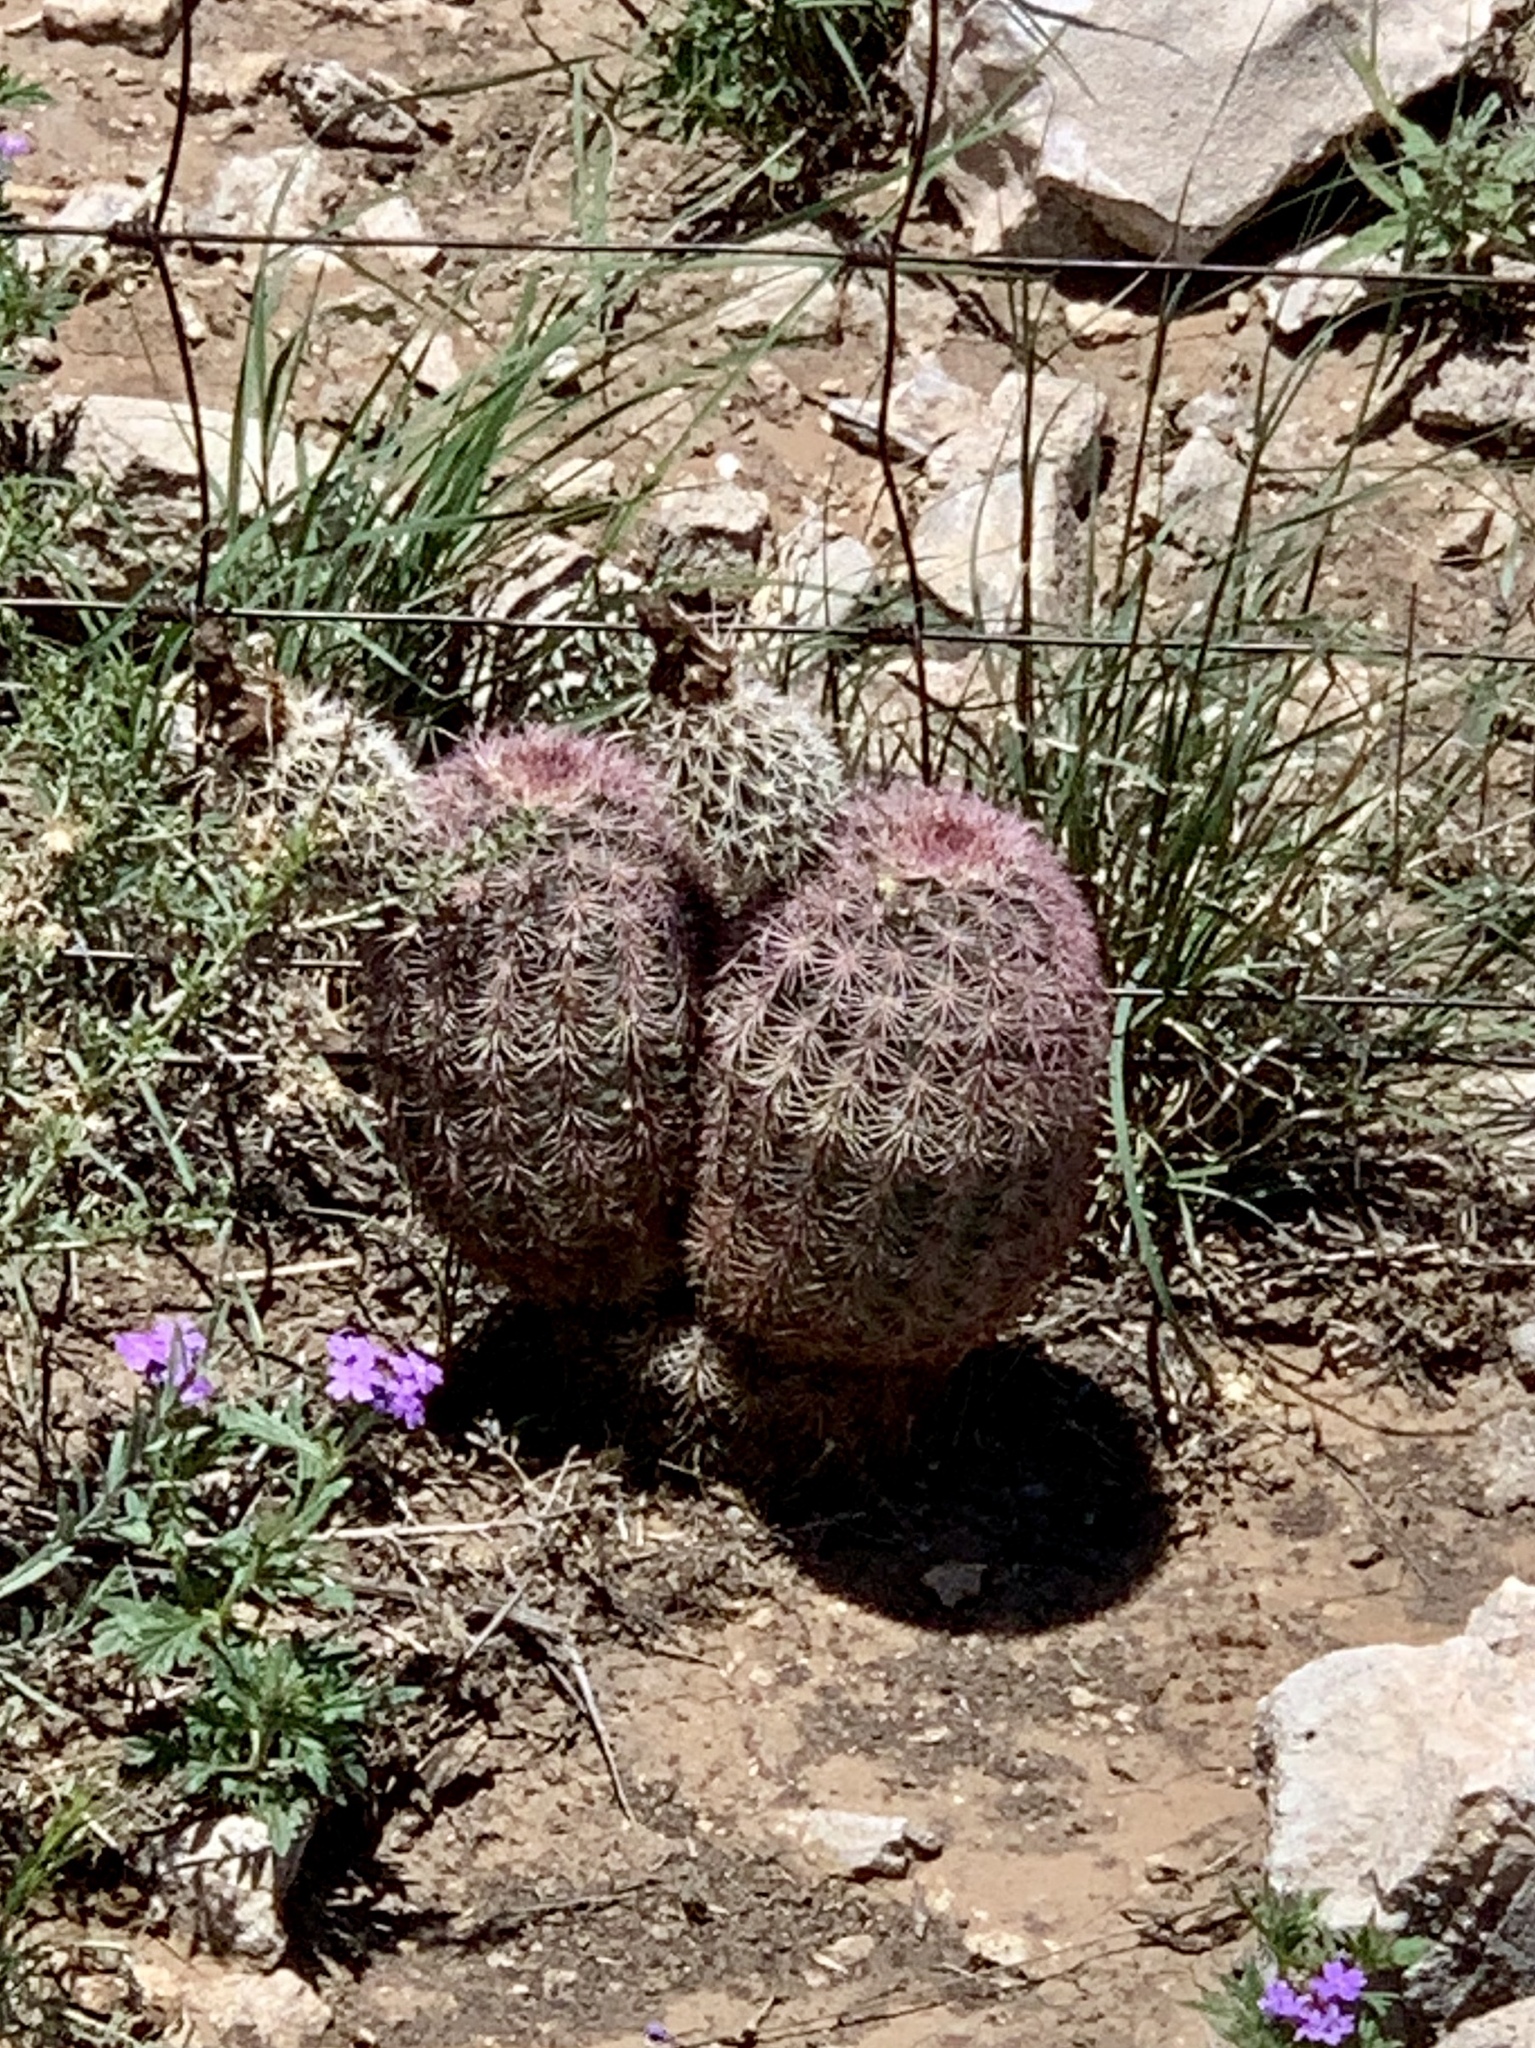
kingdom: Plantae
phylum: Tracheophyta
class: Magnoliopsida
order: Caryophyllales
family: Cactaceae
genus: Echinocereus
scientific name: Echinocereus dasyacanthus
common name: Spiny hedgehog cactus
